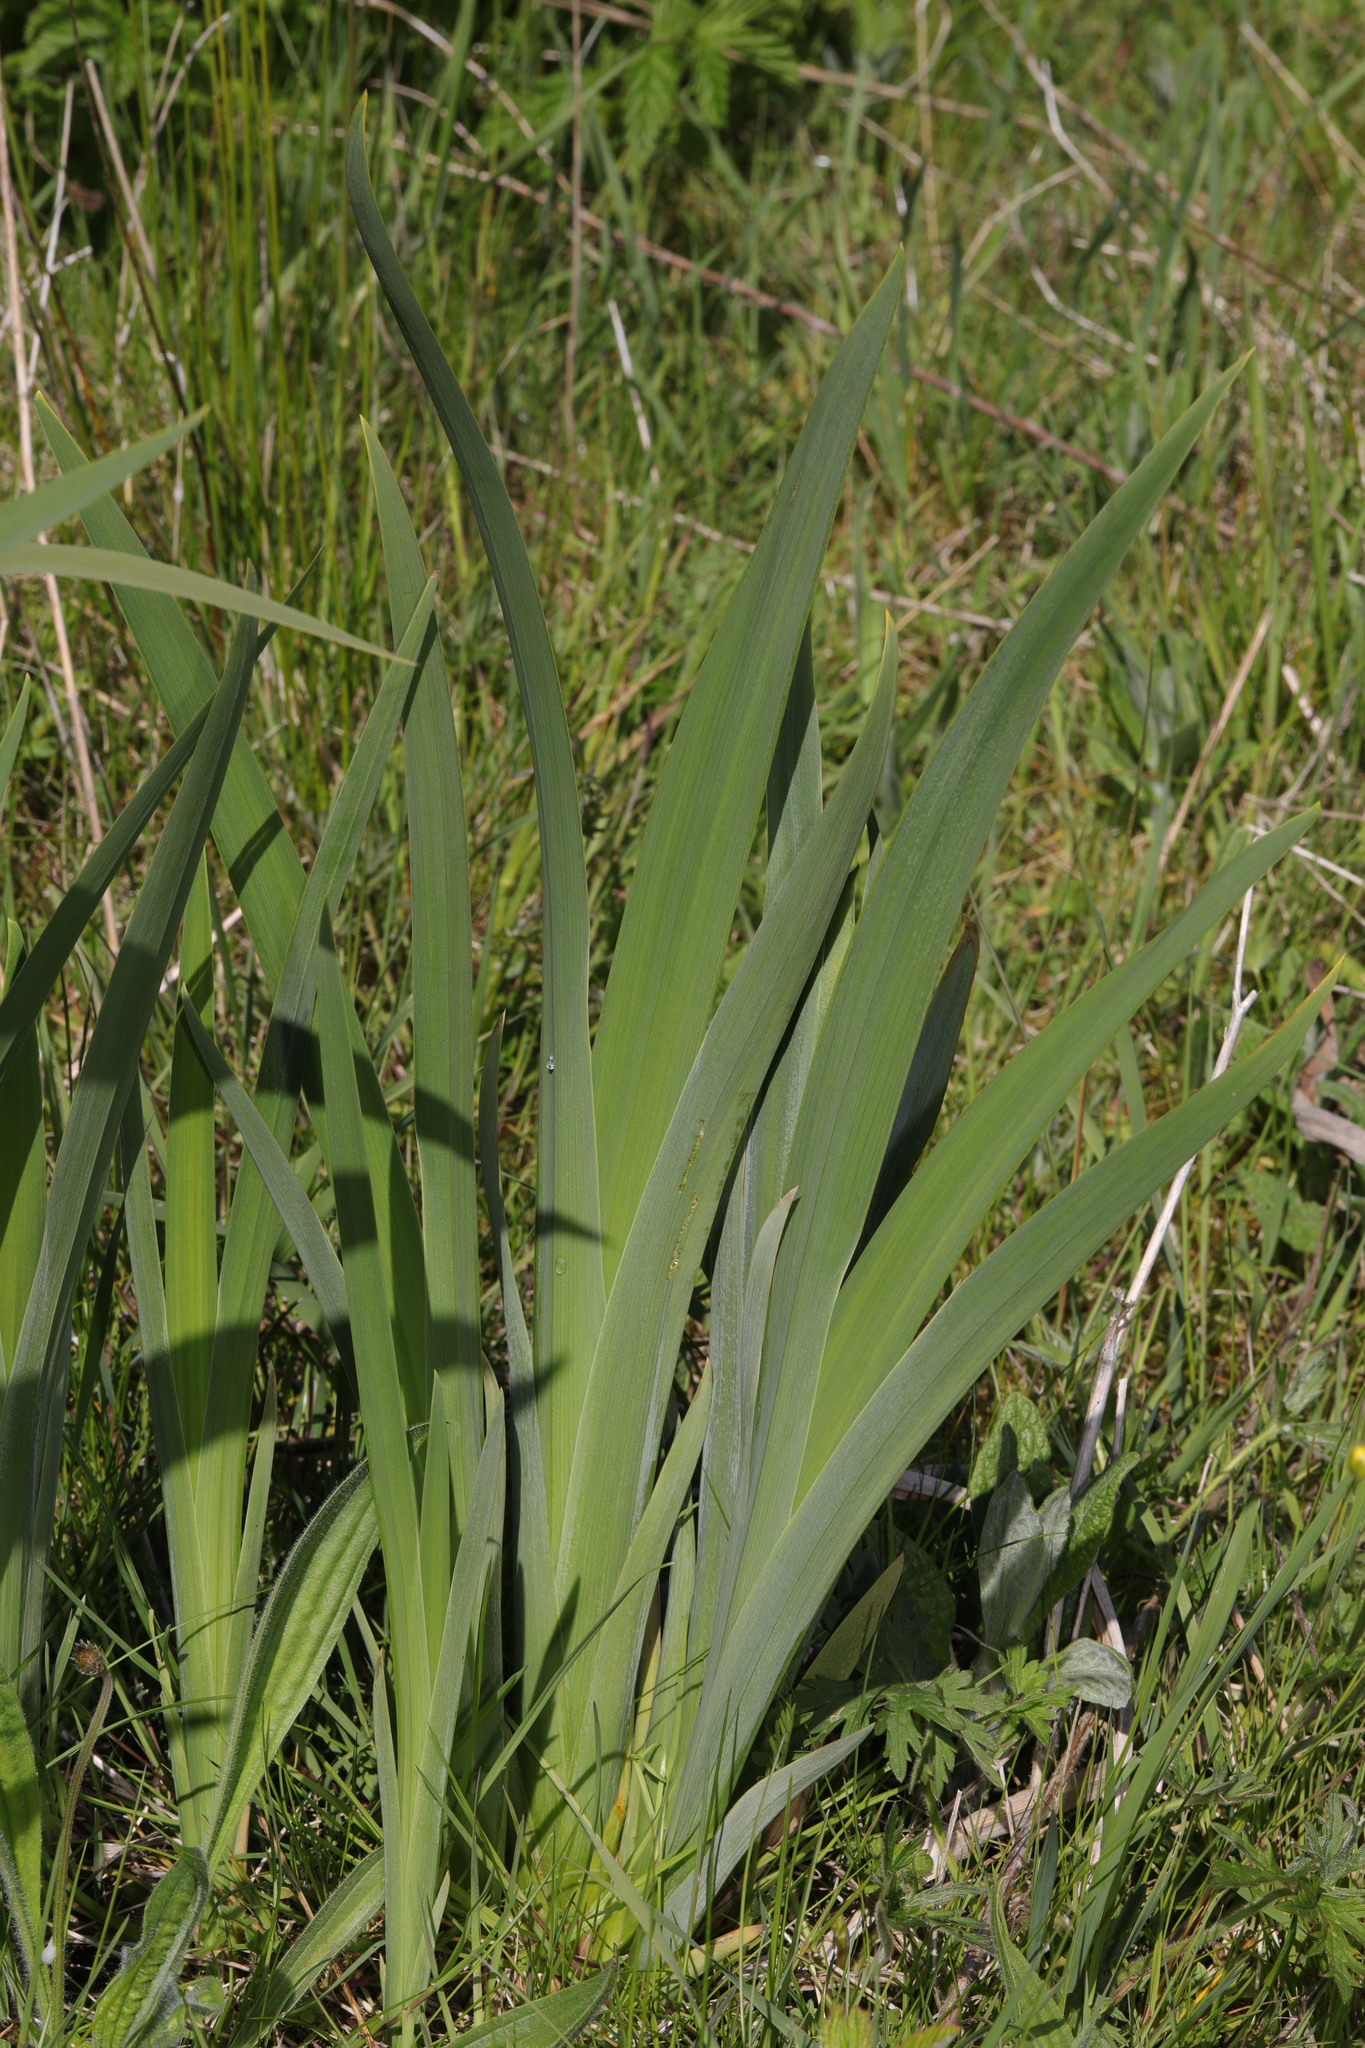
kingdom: Plantae
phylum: Tracheophyta
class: Liliopsida
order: Asparagales
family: Iridaceae
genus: Iris
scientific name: Iris pseudacorus
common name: Yellow flag
